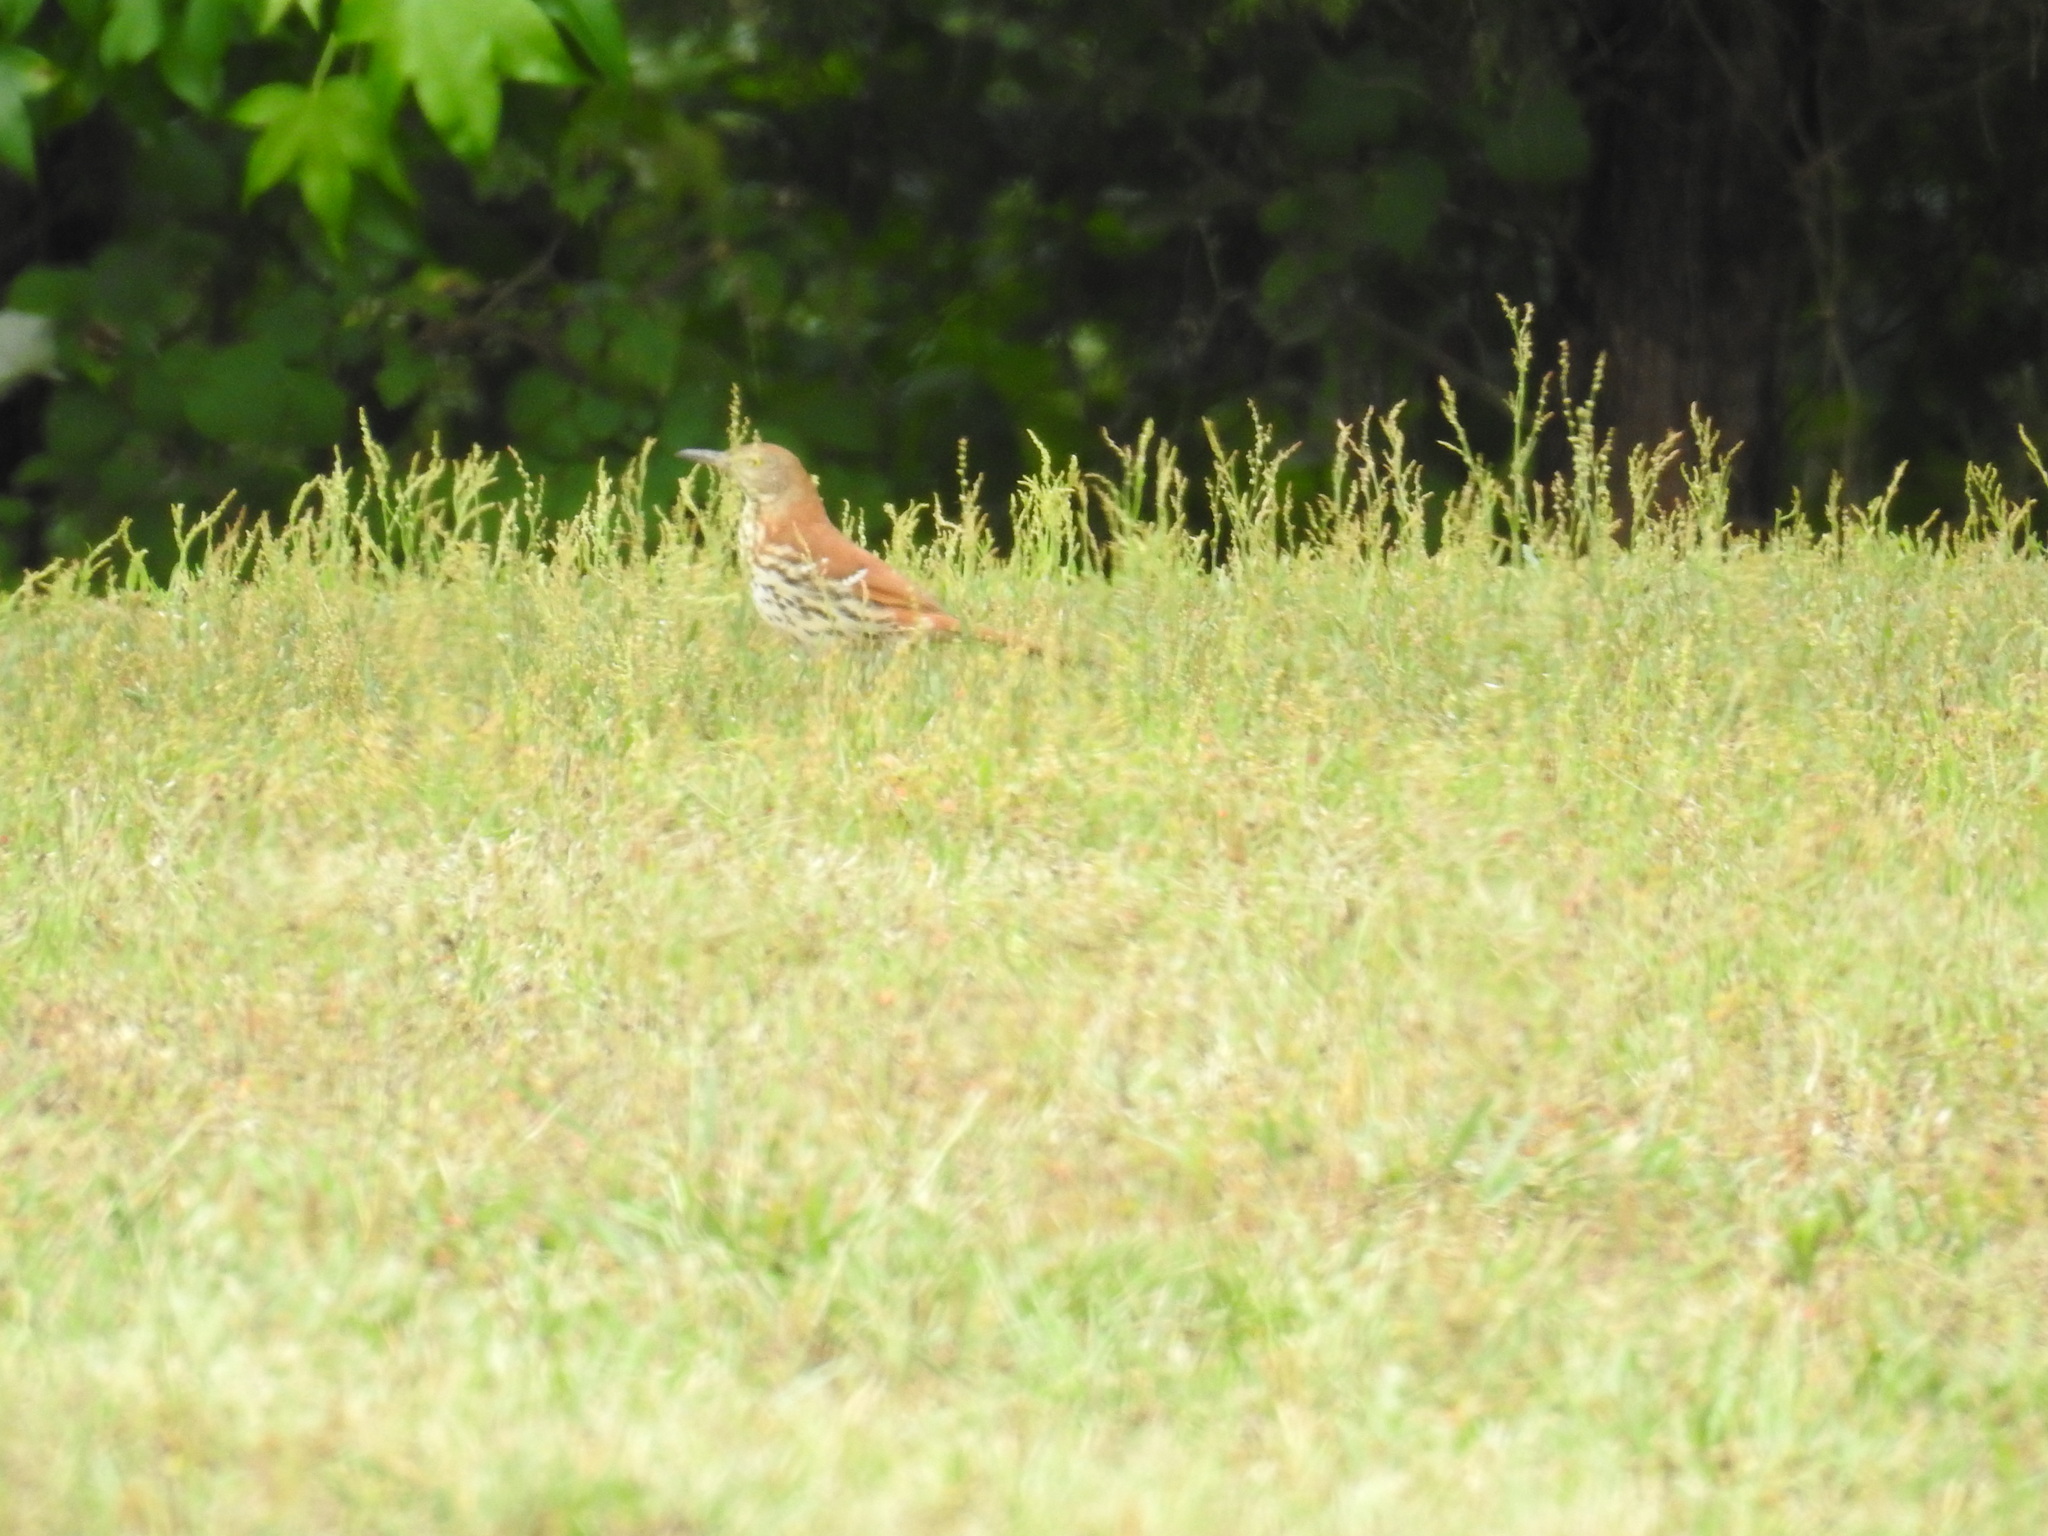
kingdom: Animalia
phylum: Chordata
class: Aves
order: Passeriformes
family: Mimidae
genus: Toxostoma
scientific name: Toxostoma rufum
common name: Brown thrasher
